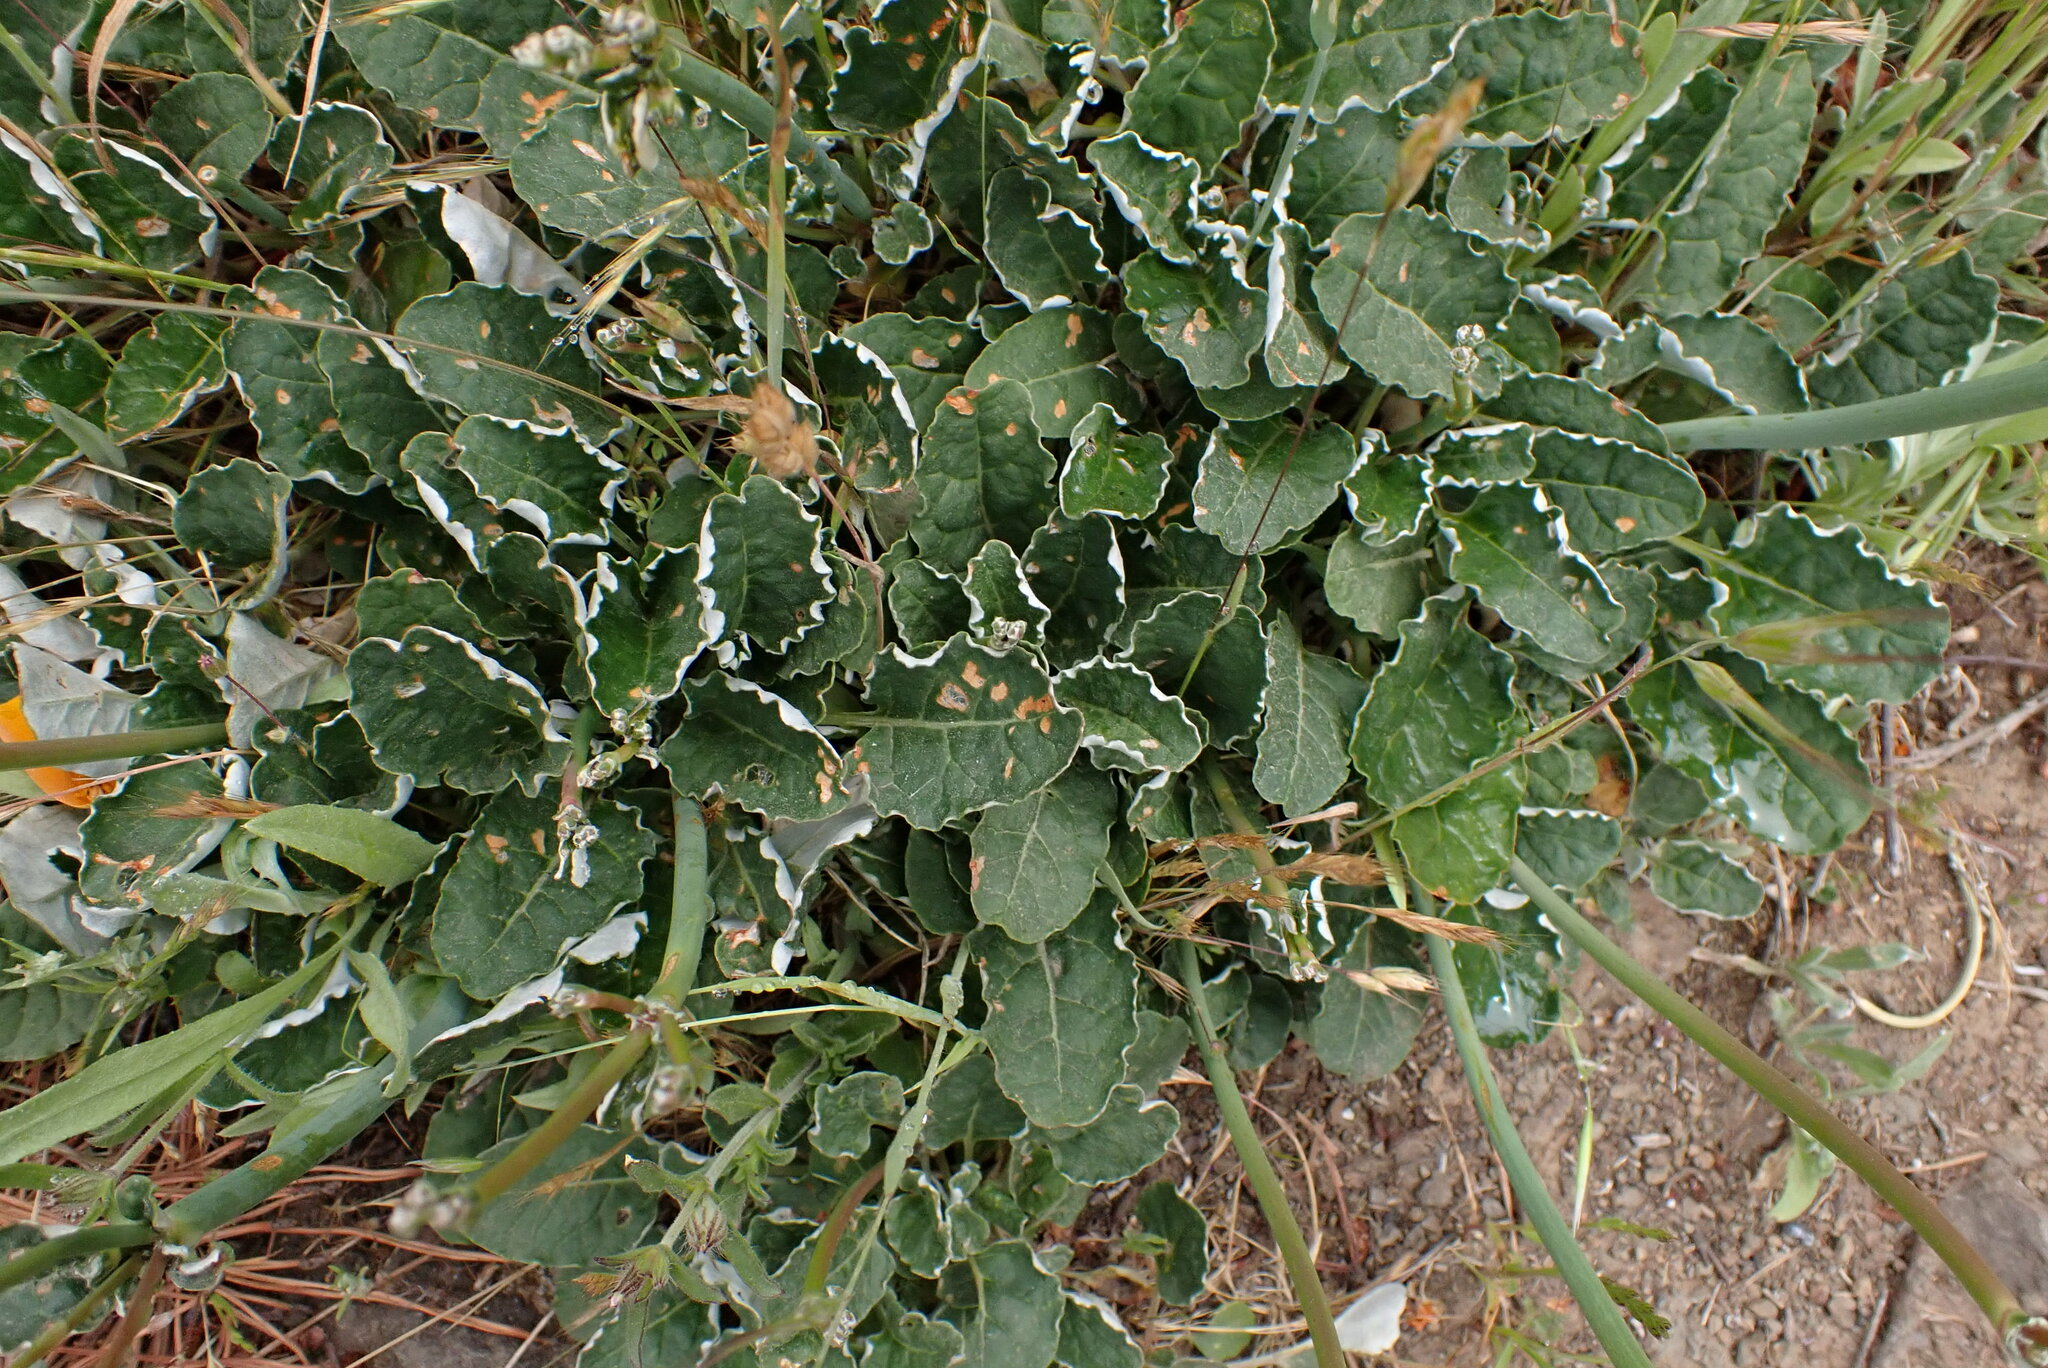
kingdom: Plantae
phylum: Tracheophyta
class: Magnoliopsida
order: Caryophyllales
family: Polygonaceae
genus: Eriogonum
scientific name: Eriogonum nudum
